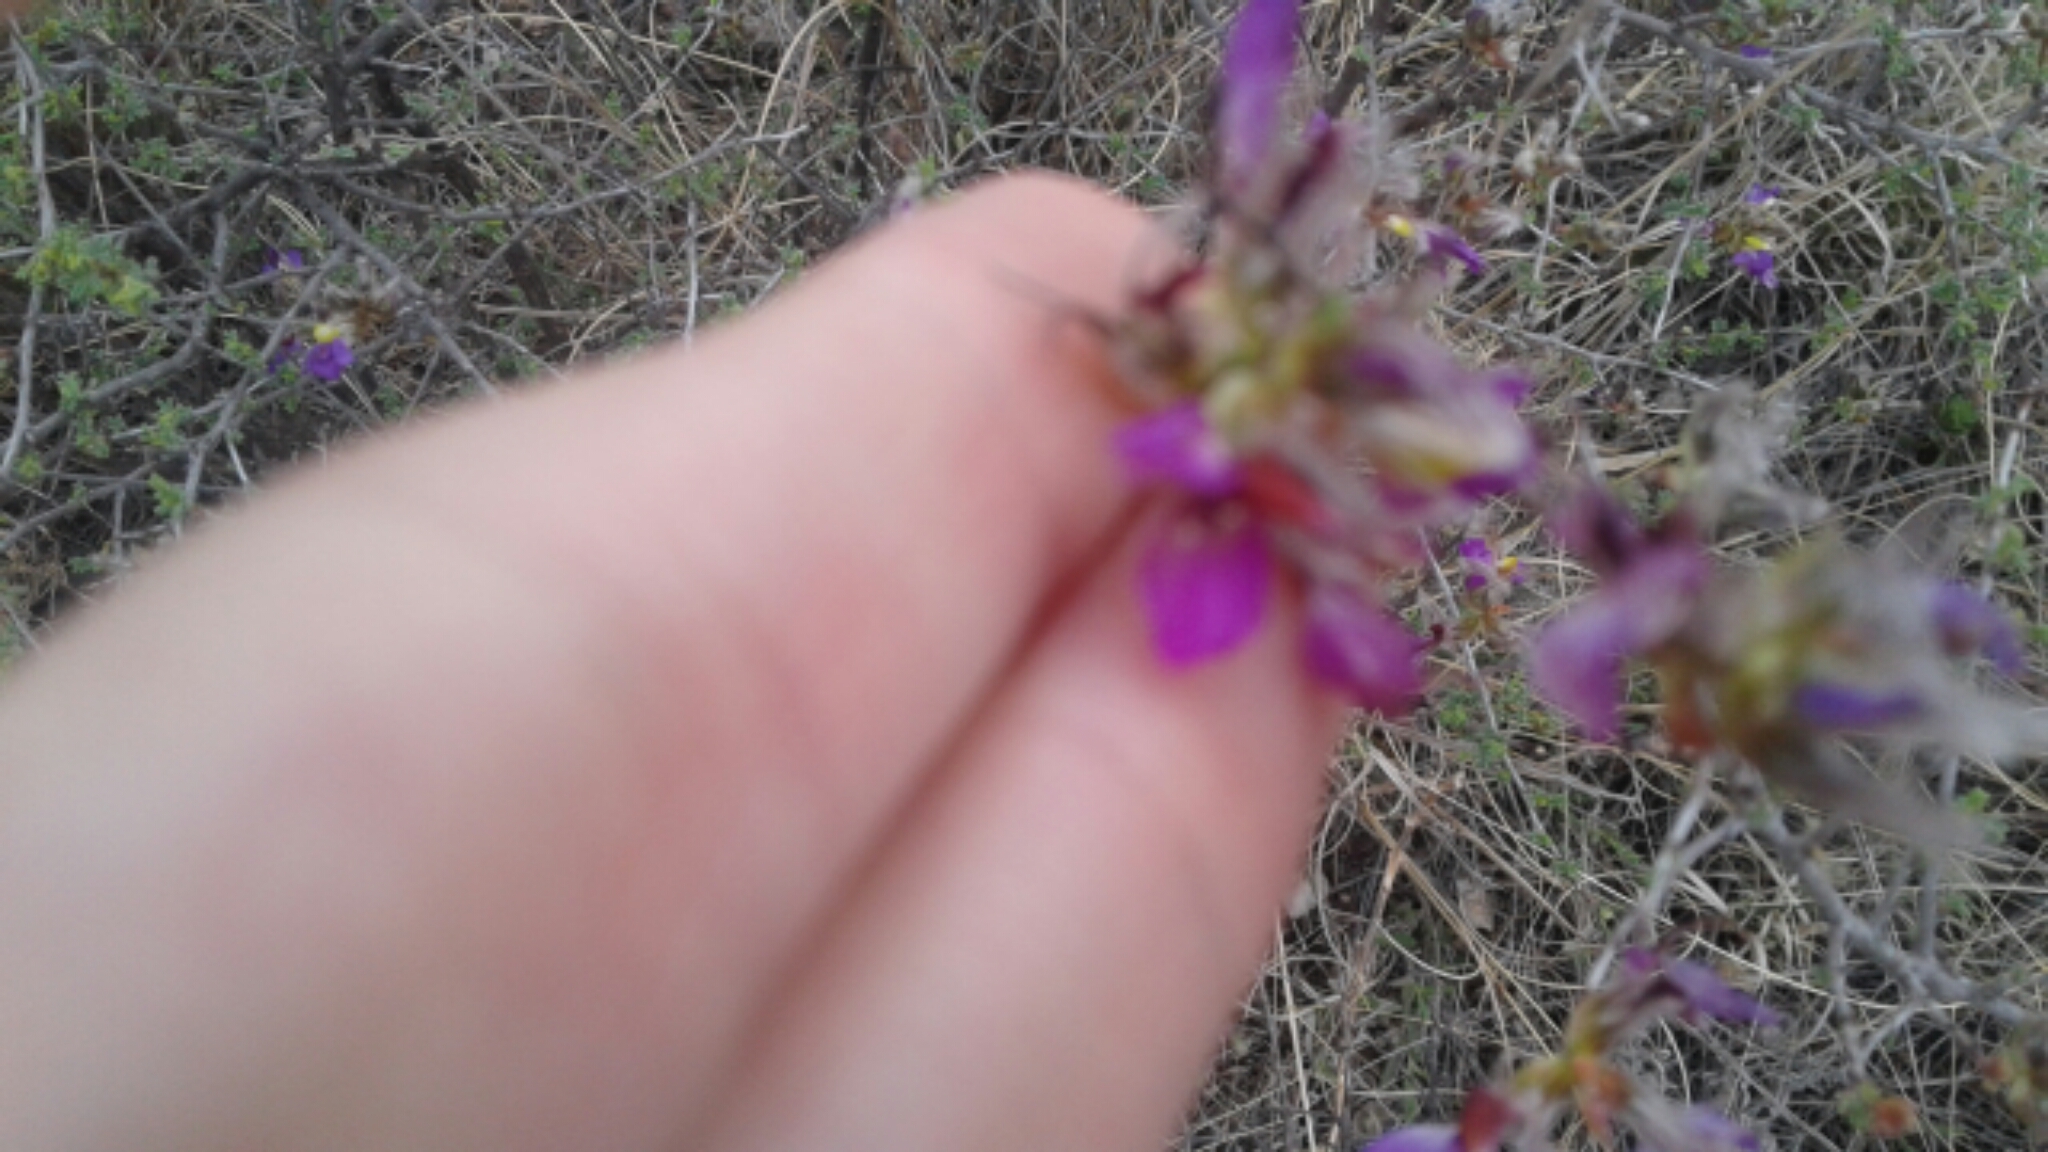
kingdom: Plantae
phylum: Tracheophyta
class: Magnoliopsida
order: Fabales
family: Fabaceae
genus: Dalea
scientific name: Dalea formosa
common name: Feather-plume dalea
